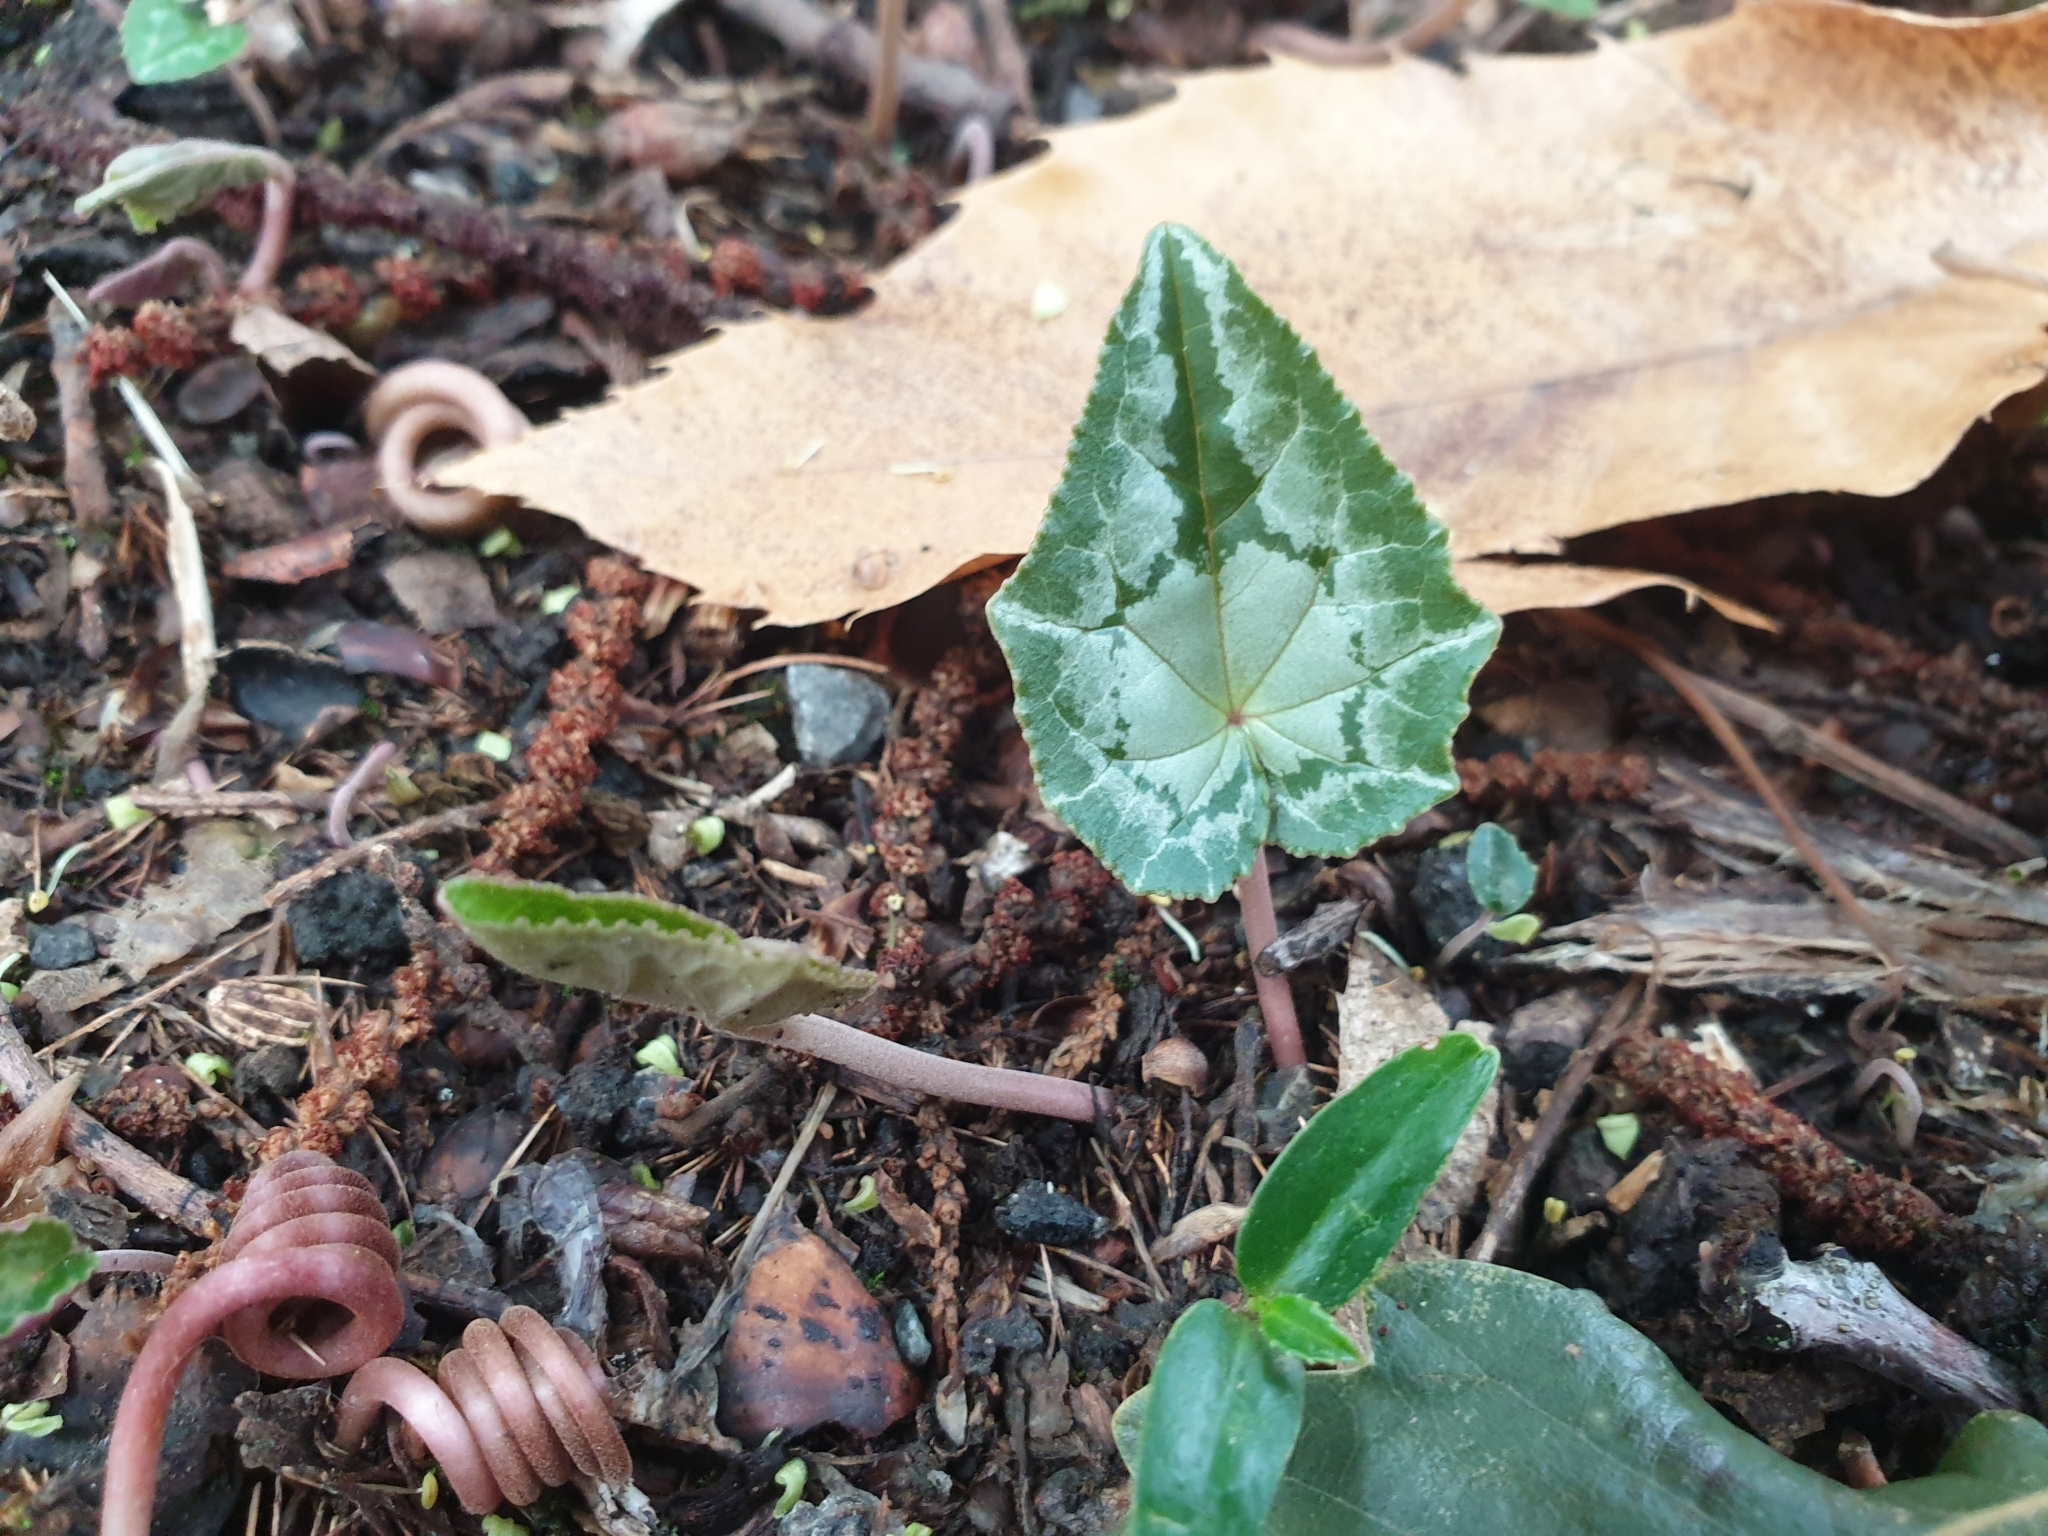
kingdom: Plantae
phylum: Tracheophyta
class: Magnoliopsida
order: Ericales
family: Primulaceae
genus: Cyclamen
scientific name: Cyclamen hederifolium
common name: Sowbread
